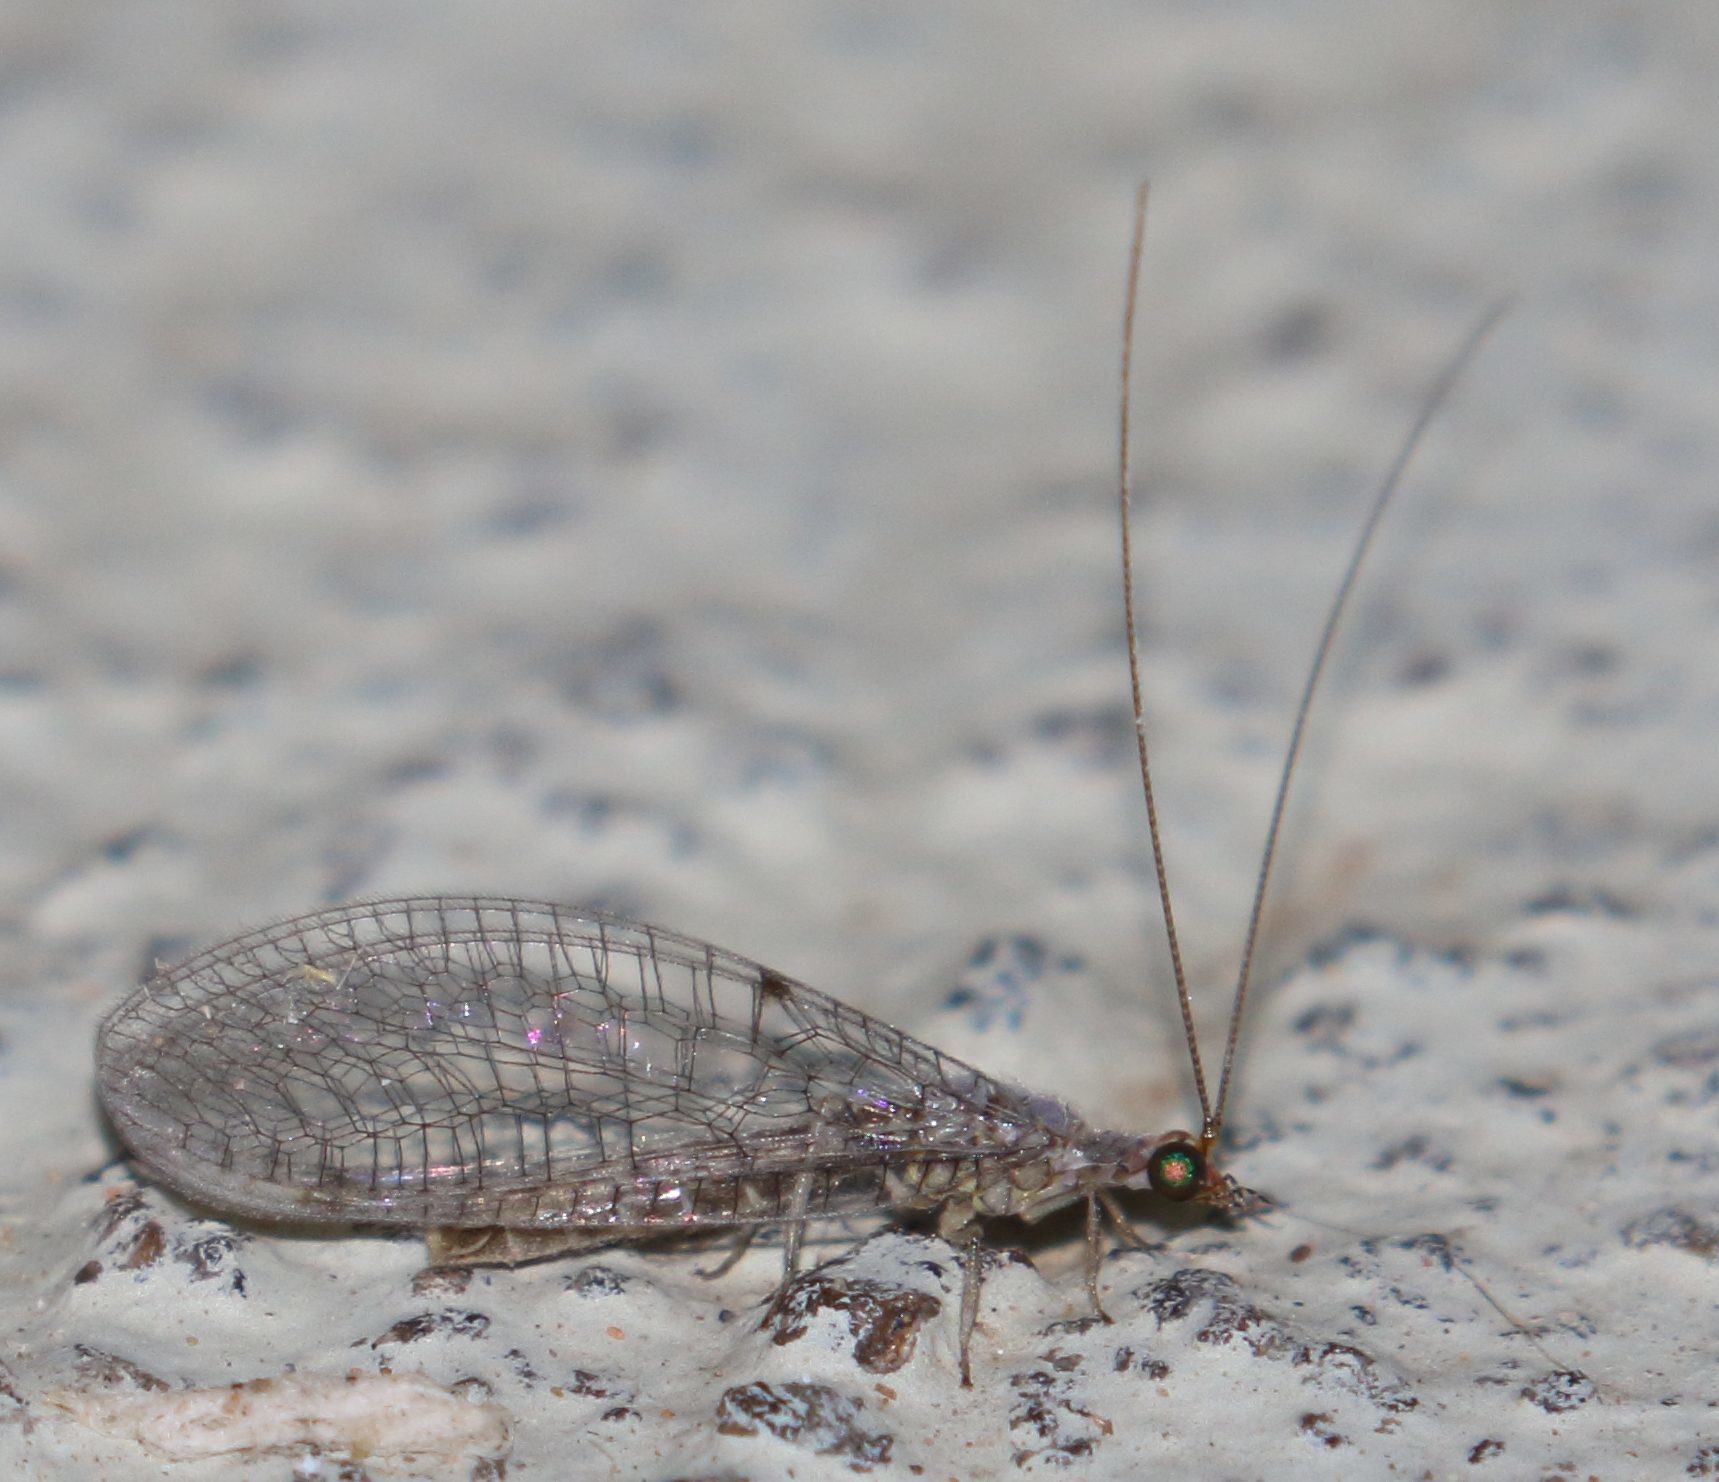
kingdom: Animalia
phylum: Arthropoda
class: Insecta
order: Neuroptera
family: Chrysopidae
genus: Chrysemosa
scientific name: Chrysemosa jeanneli
